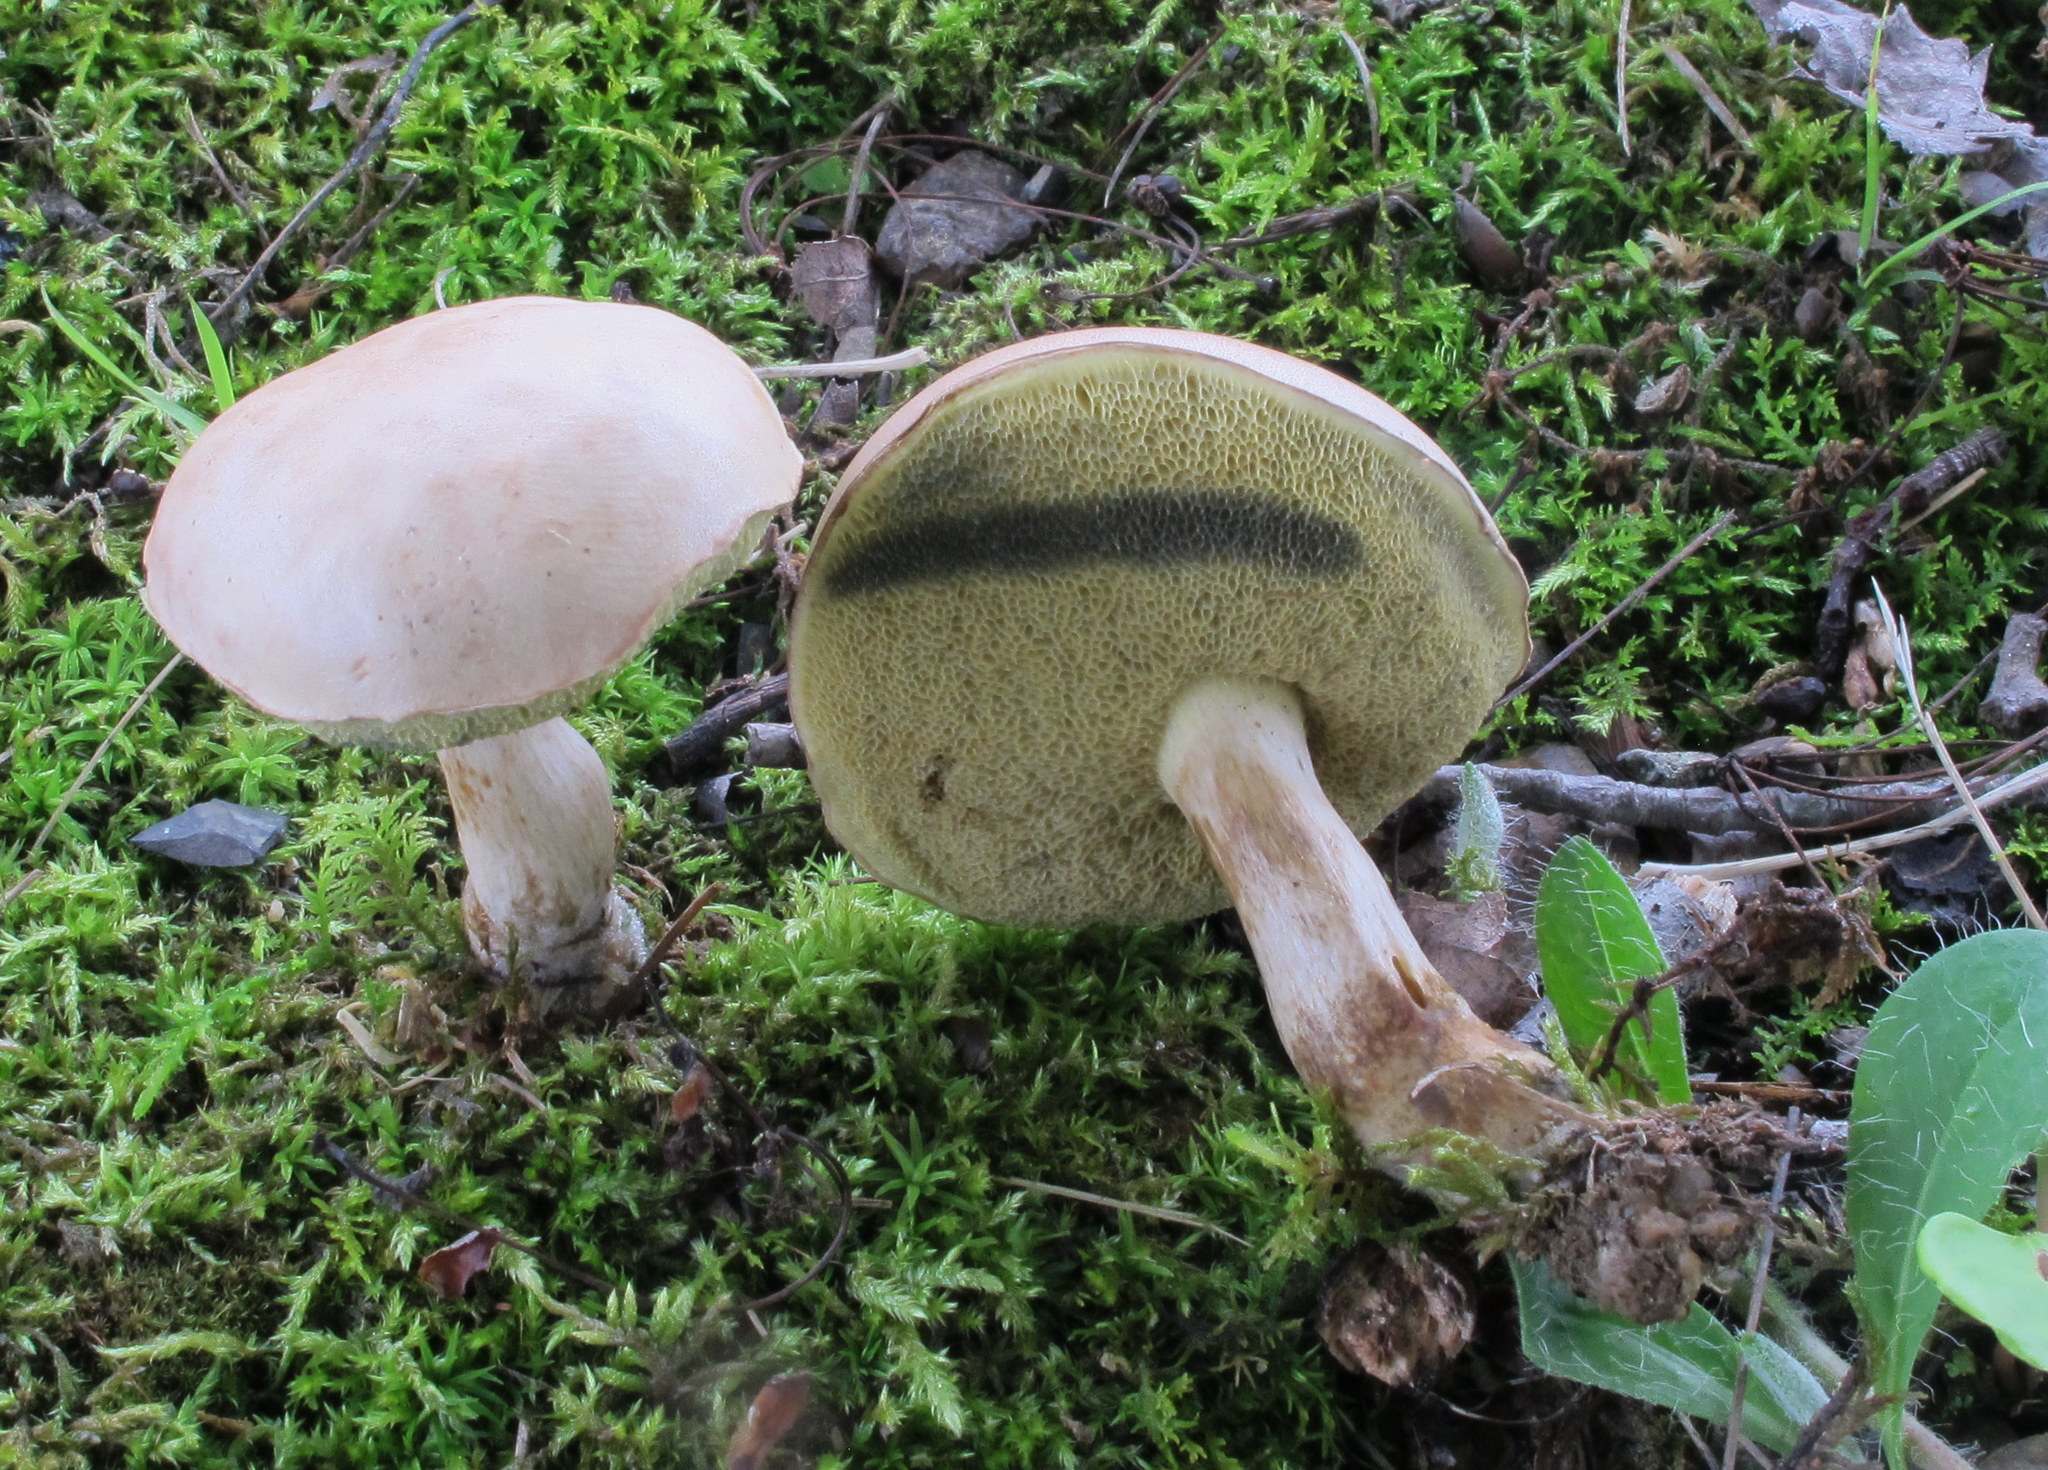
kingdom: Fungi
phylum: Basidiomycota
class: Agaricomycetes
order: Boletales
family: Boletaceae
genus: Imleria
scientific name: Imleria pallida
